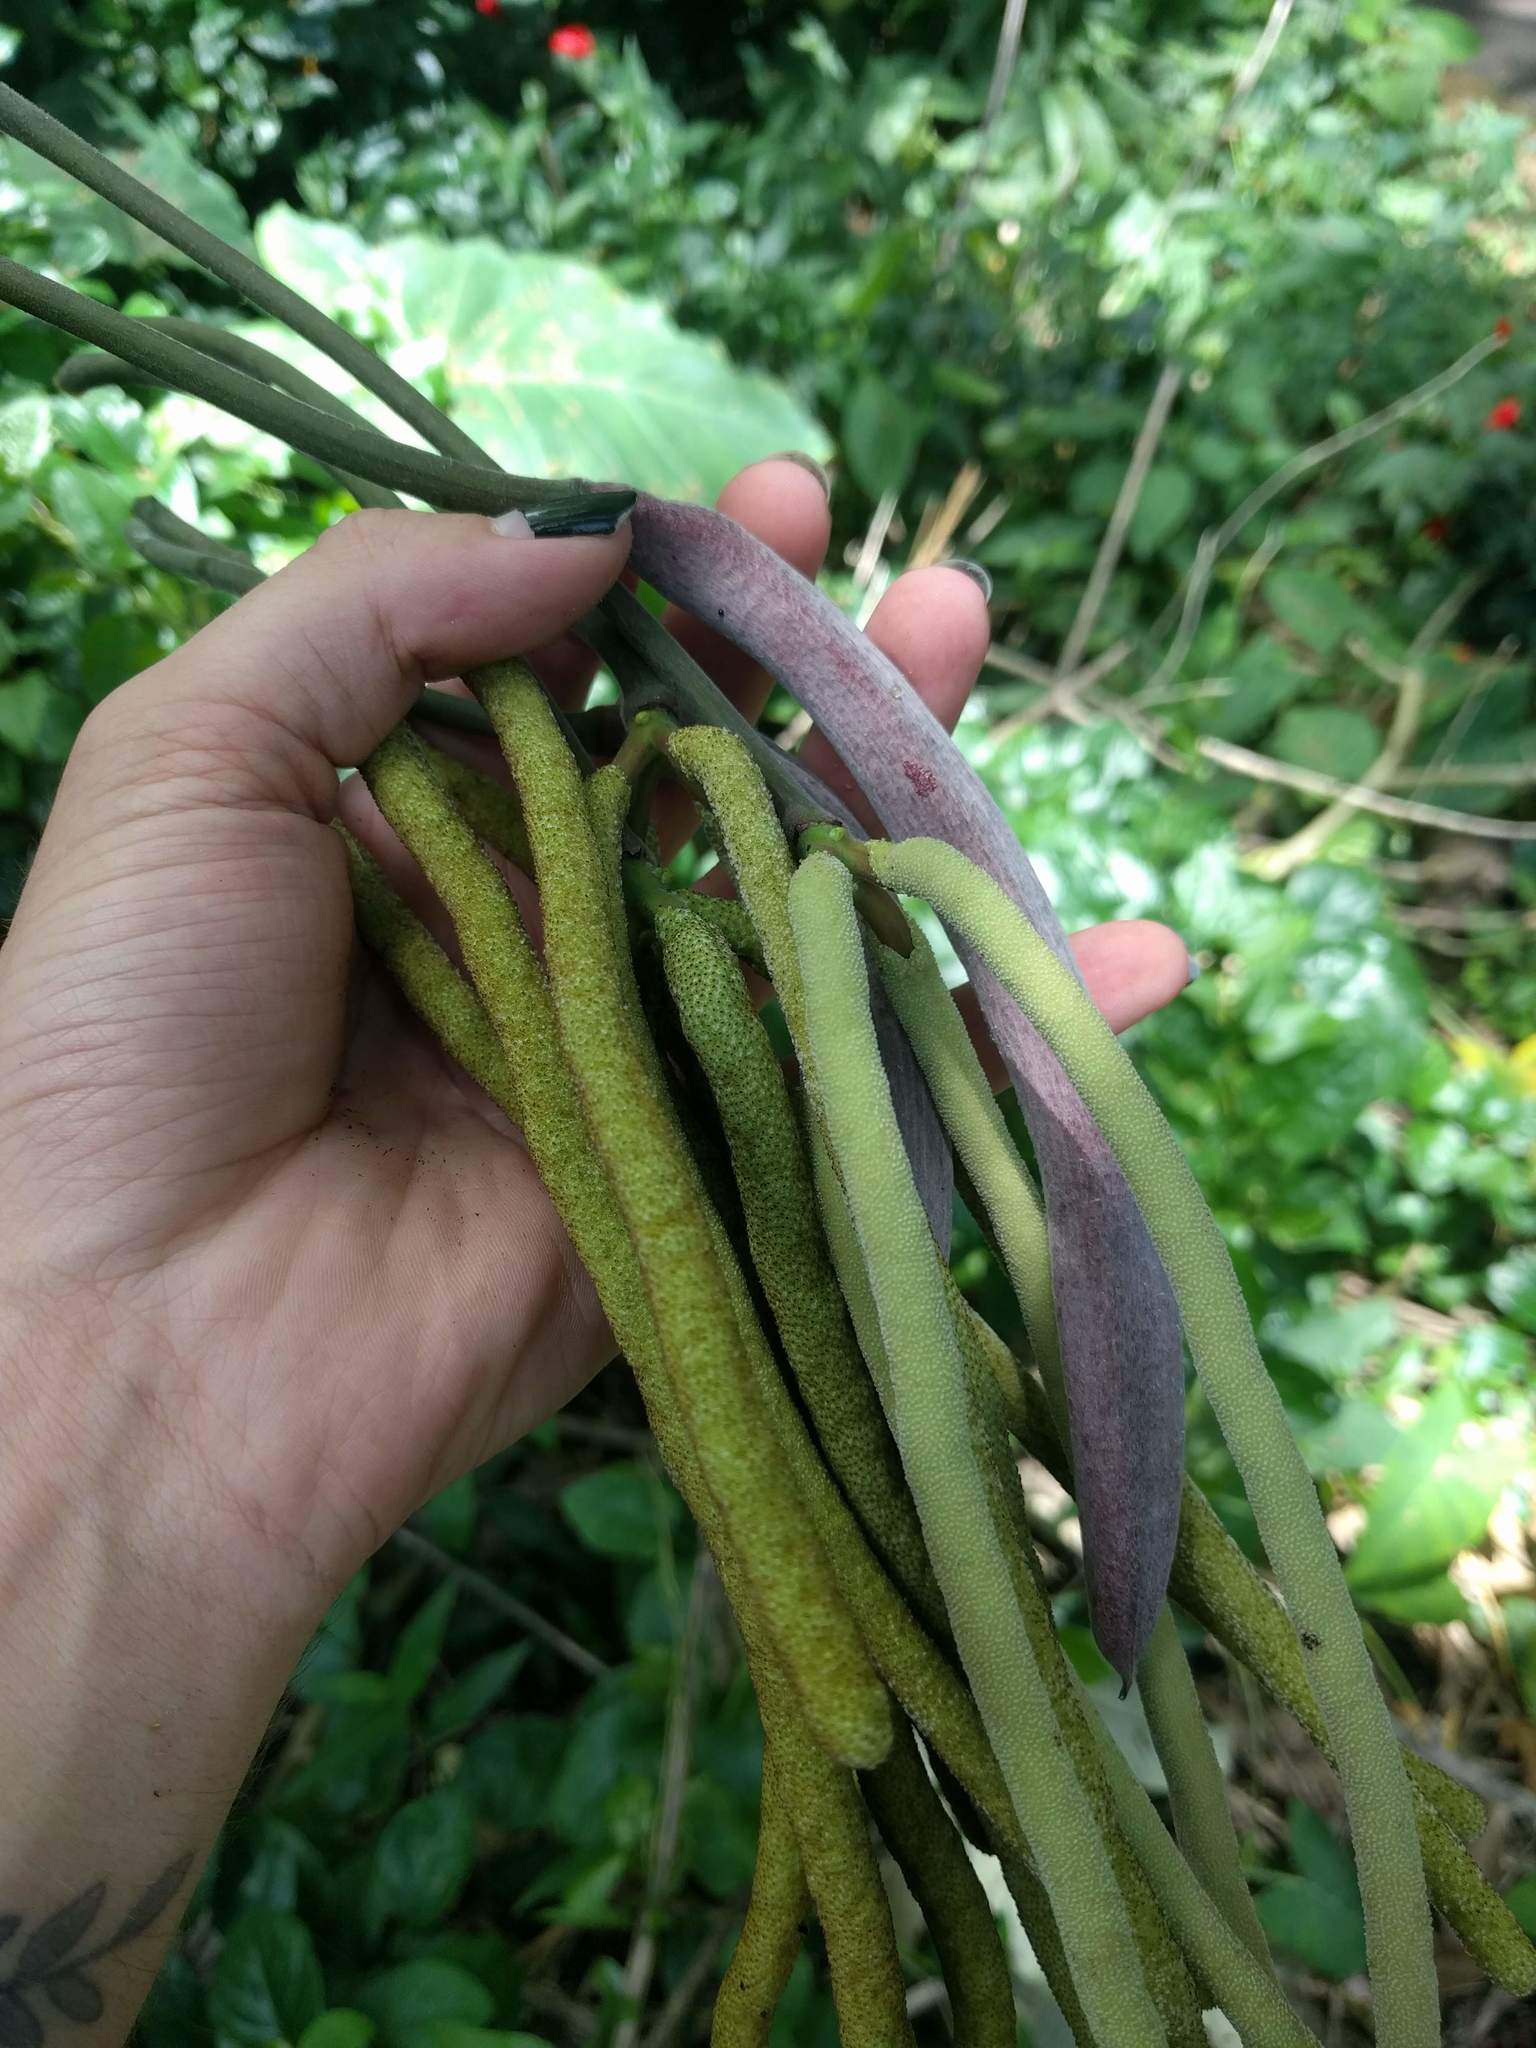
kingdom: Plantae
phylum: Tracheophyta
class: Magnoliopsida
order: Rosales
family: Urticaceae
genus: Cecropia
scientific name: Cecropia obtusifolia
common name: Trumpet tree
